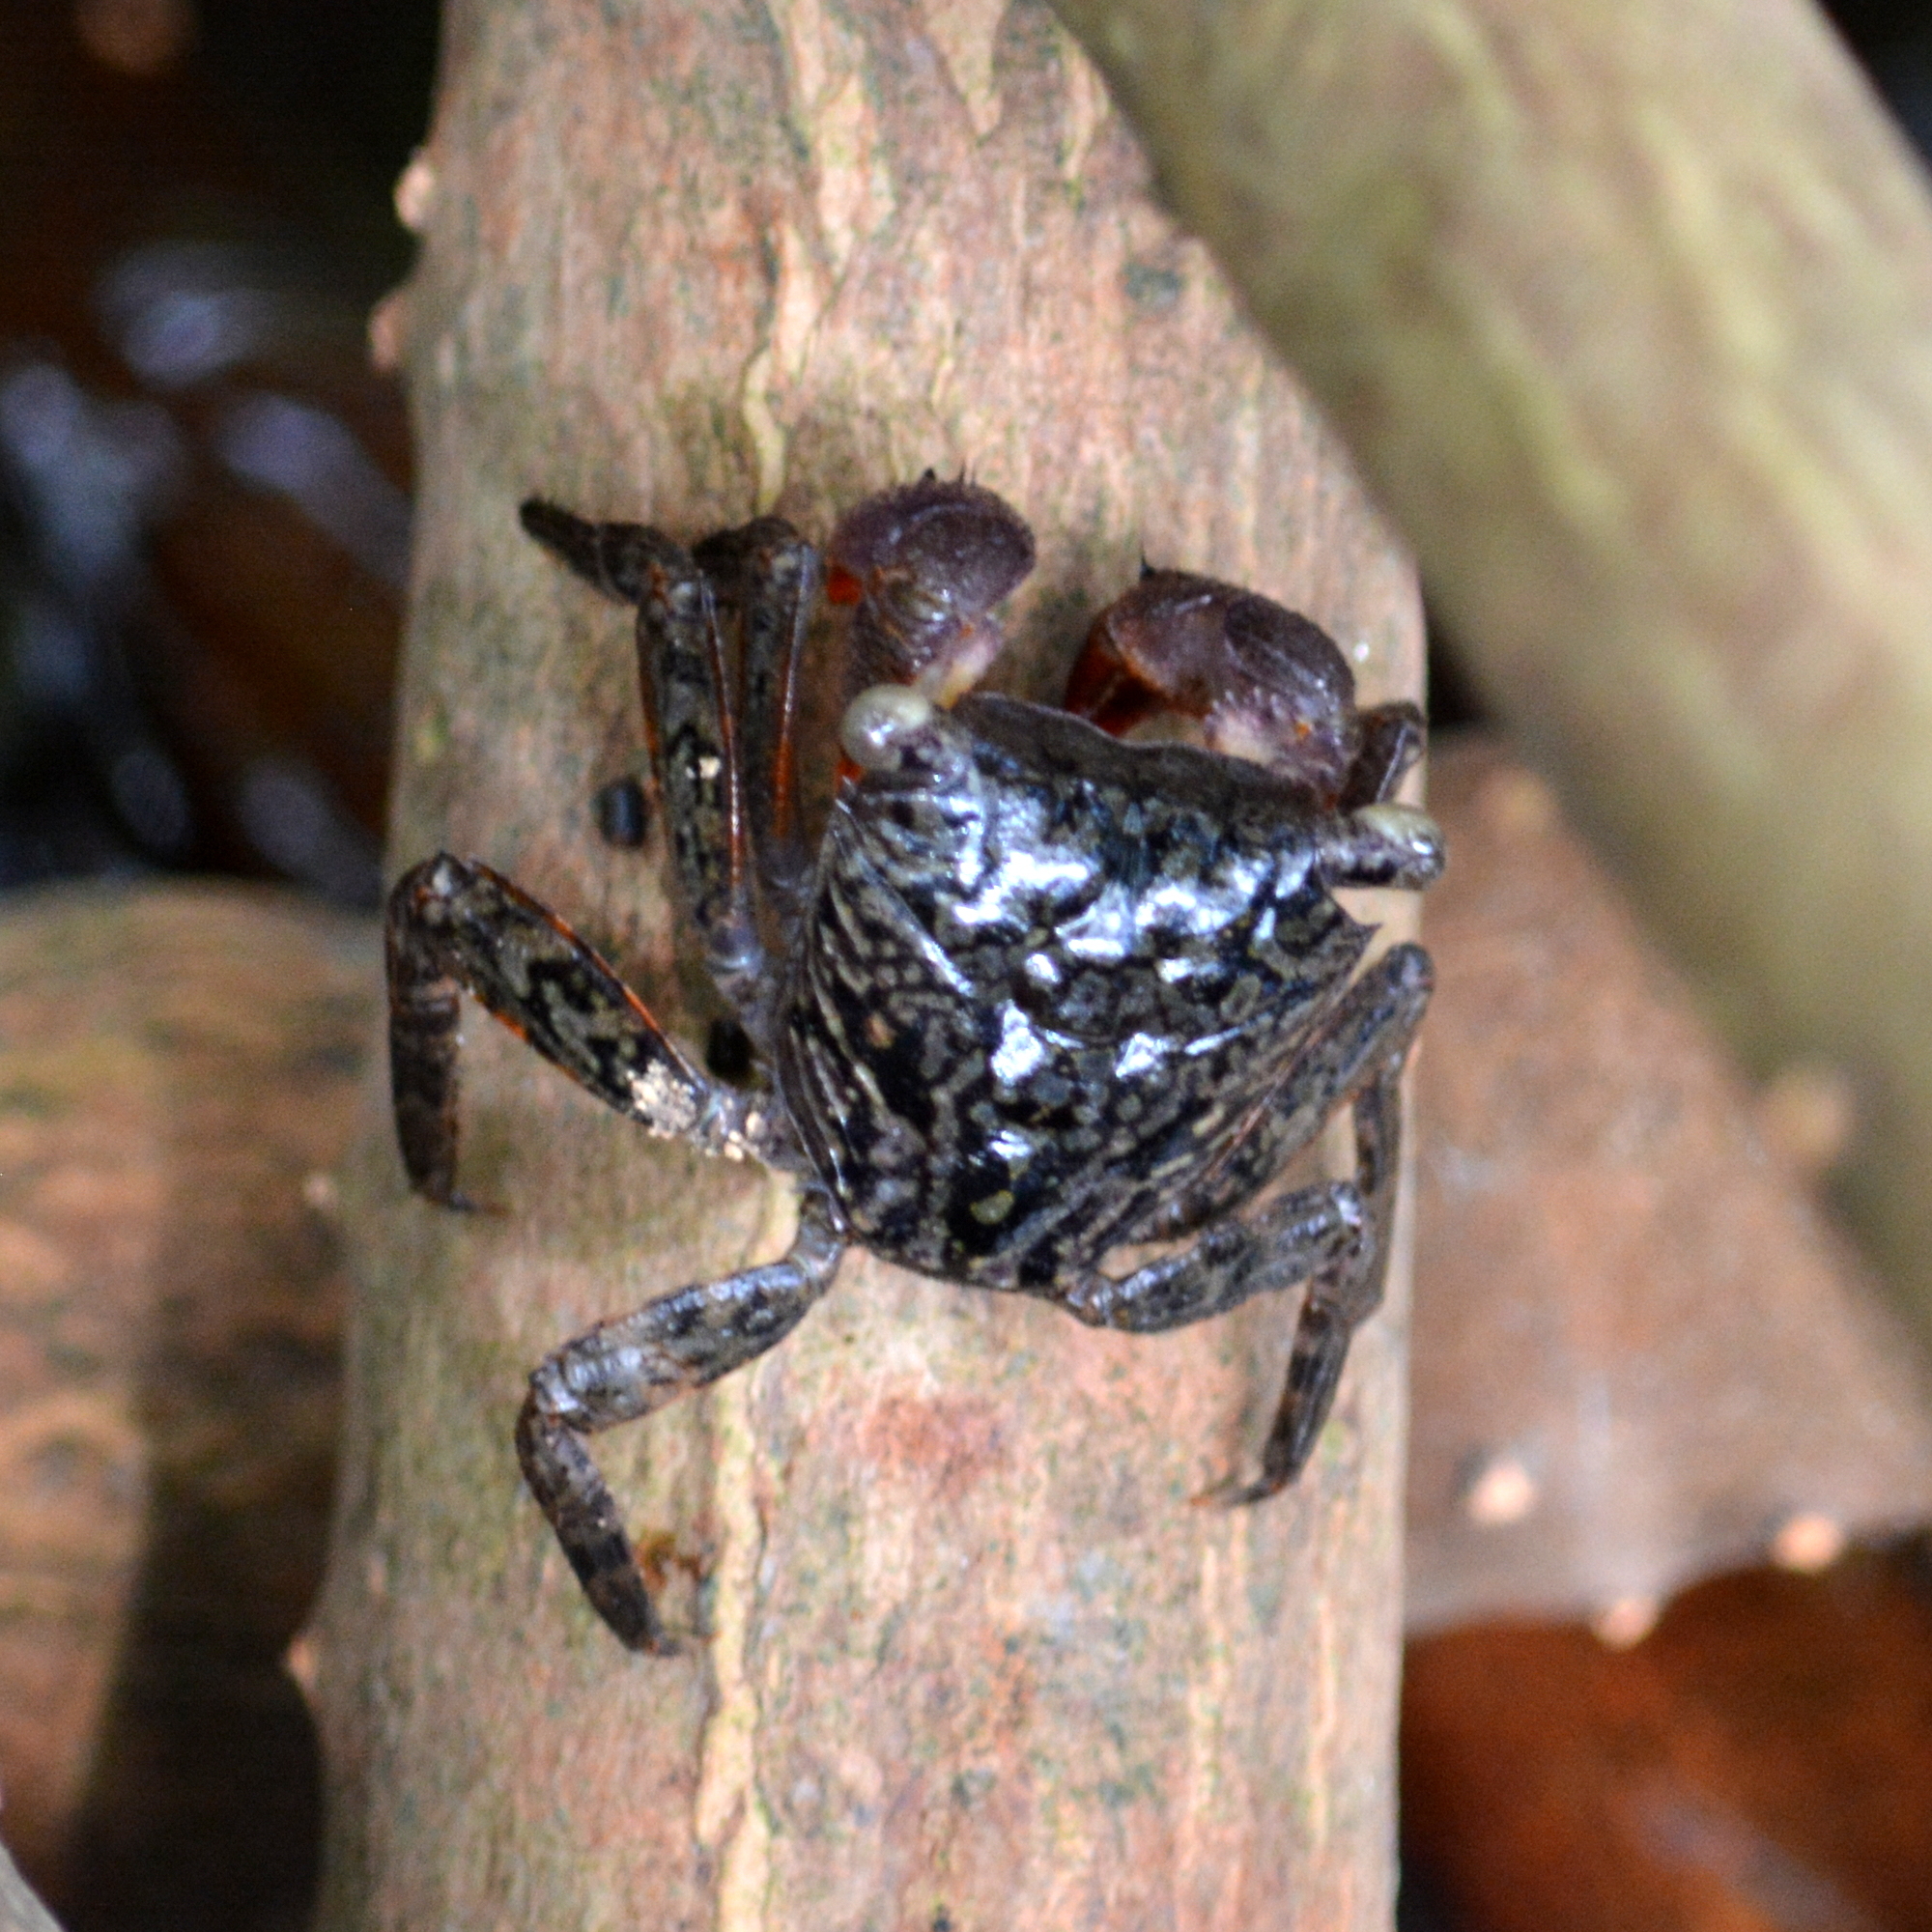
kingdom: Animalia
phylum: Arthropoda
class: Malacostraca
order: Decapoda
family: Sesarmidae
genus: Aratus
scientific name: Aratus pisonii
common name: Mangrove crab
